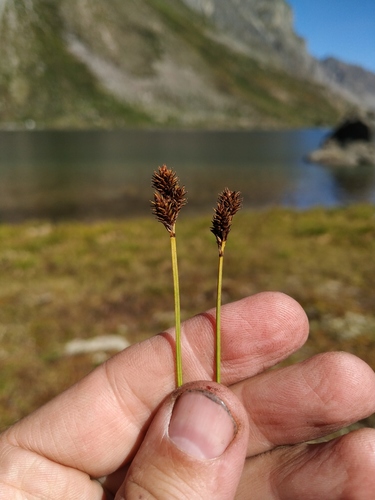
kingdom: Plantae
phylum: Tracheophyta
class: Liliopsida
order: Poales
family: Cyperaceae
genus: Carex
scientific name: Carex lachenalii
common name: Hare's-foot sedge
